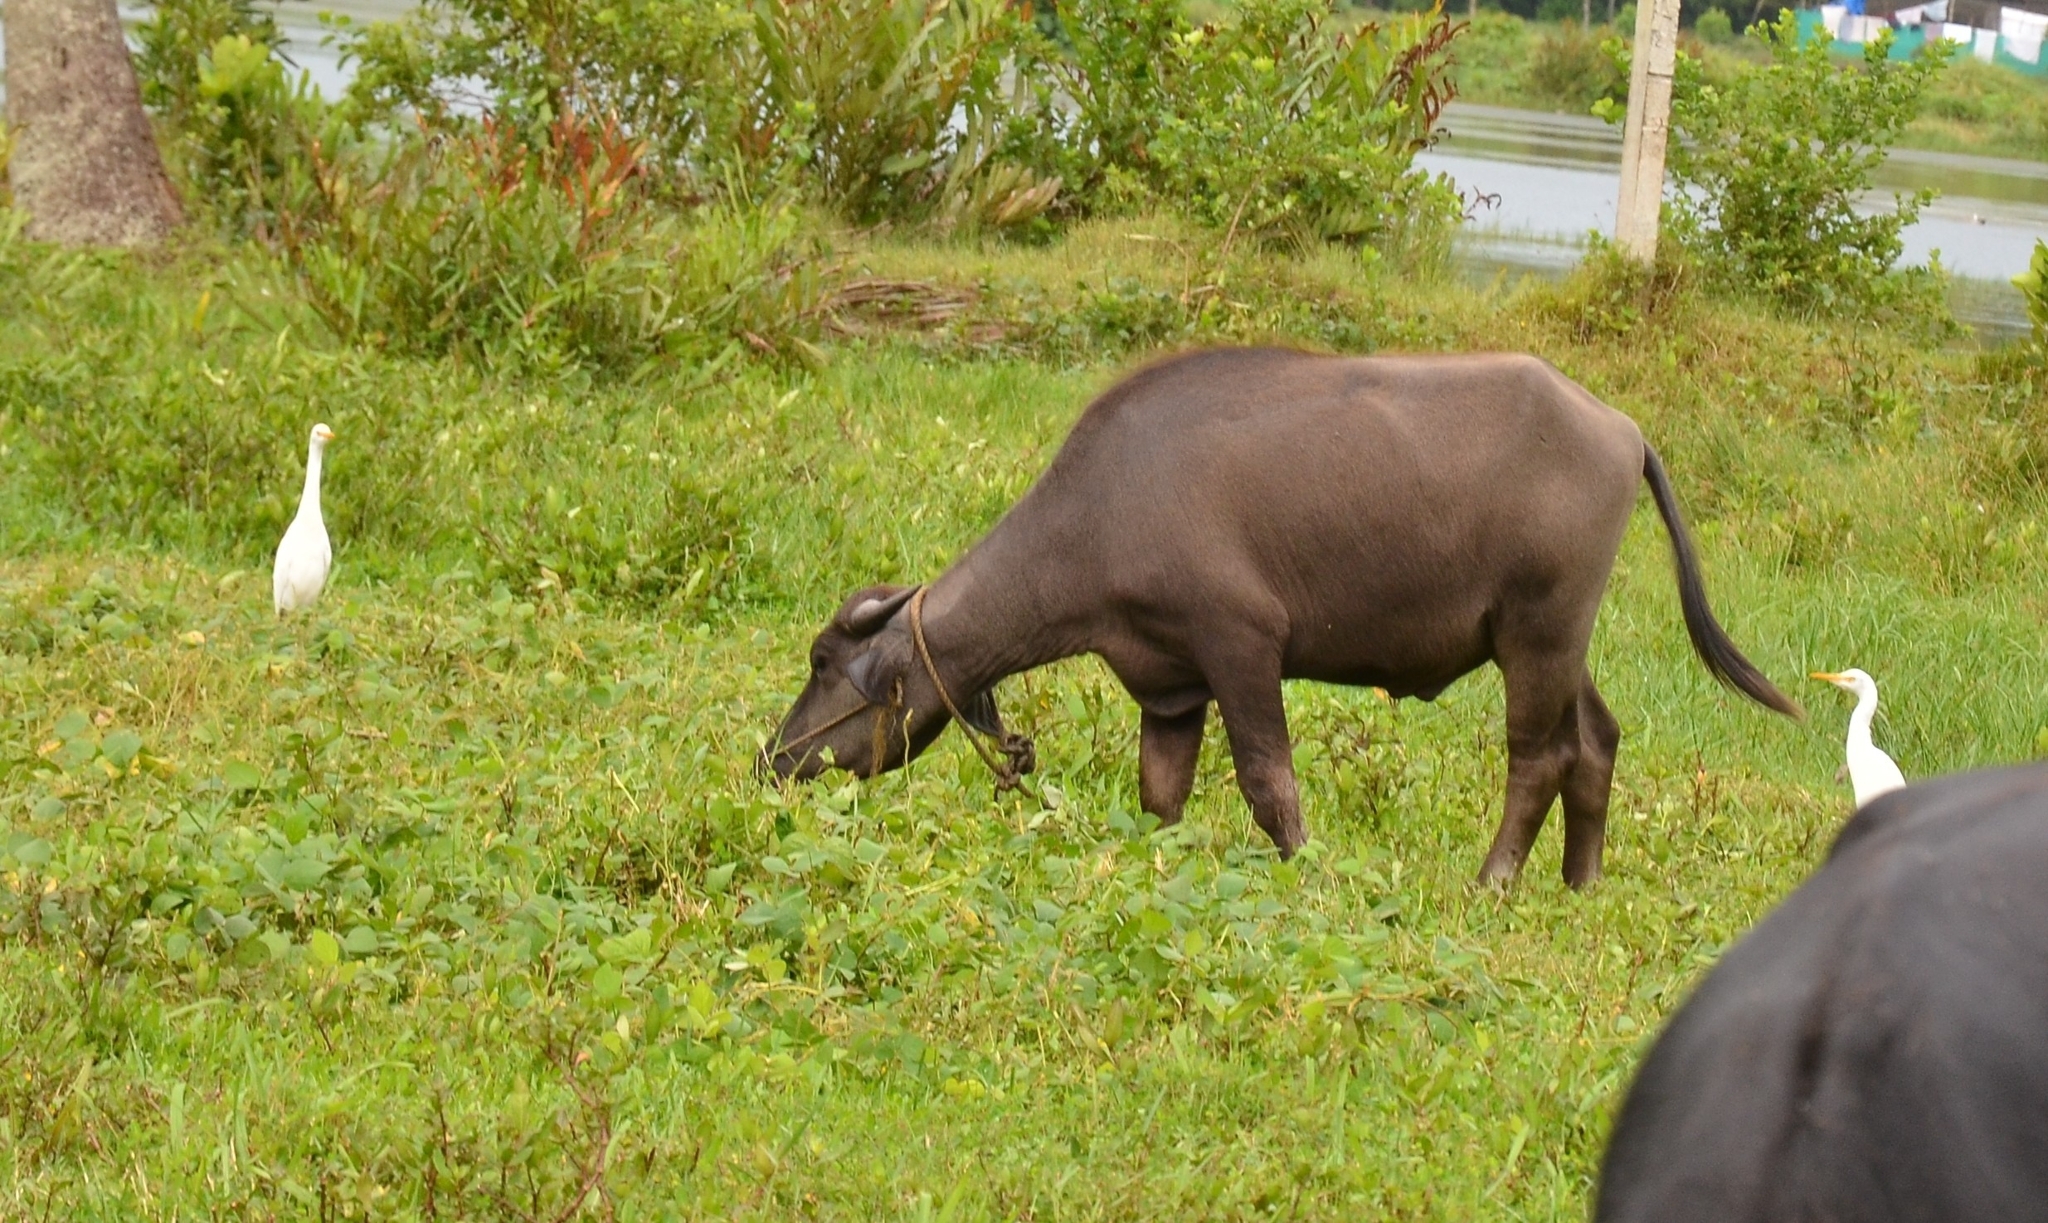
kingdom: Animalia
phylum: Chordata
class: Aves
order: Pelecaniformes
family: Ardeidae
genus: Bubulcus
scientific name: Bubulcus coromandus
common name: Eastern cattle egret
